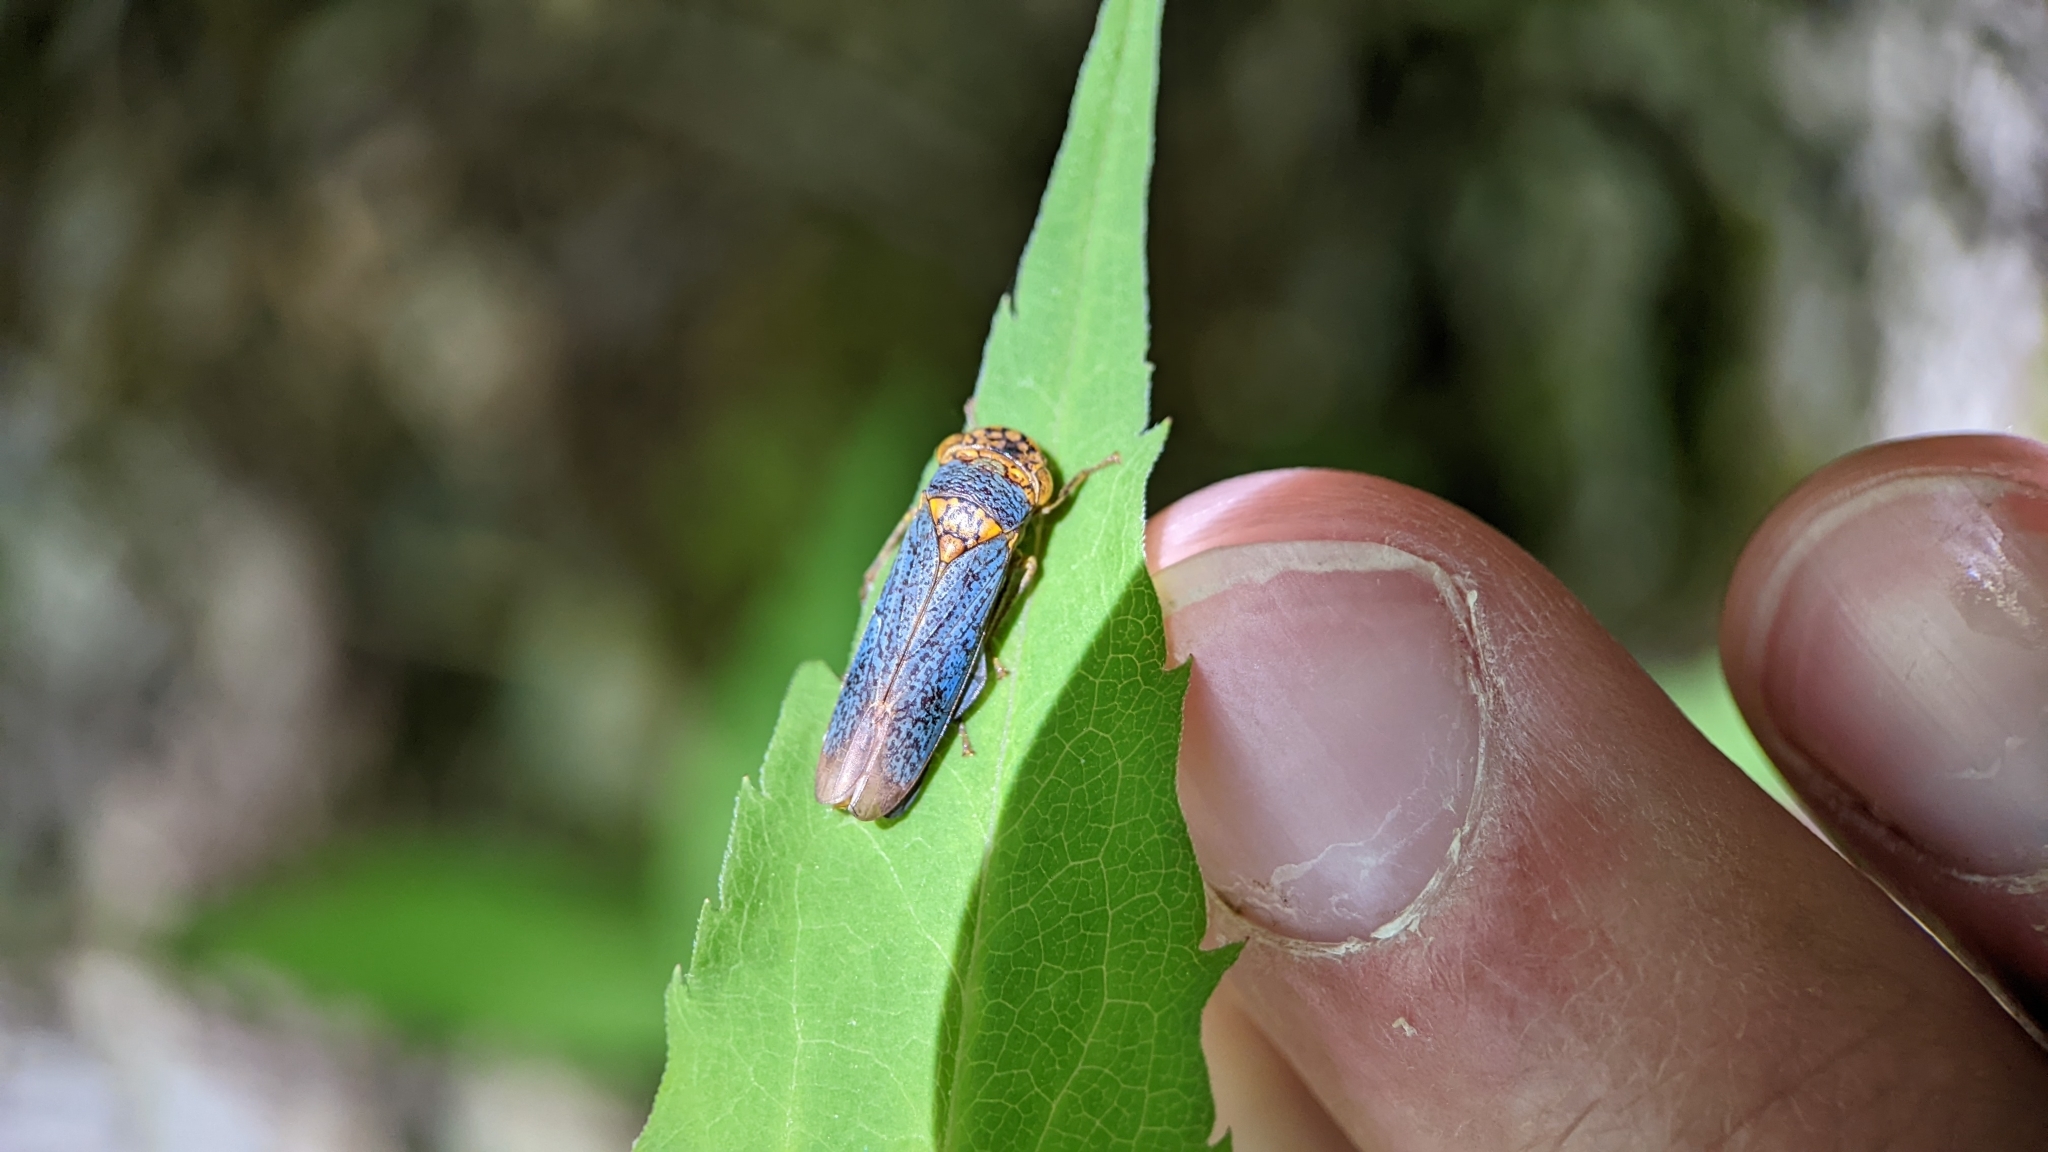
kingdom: Animalia
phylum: Arthropoda
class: Insecta
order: Hemiptera
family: Cicadellidae
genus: Oncometopia
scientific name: Oncometopia orbona
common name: Broad-headed sharpshooter
